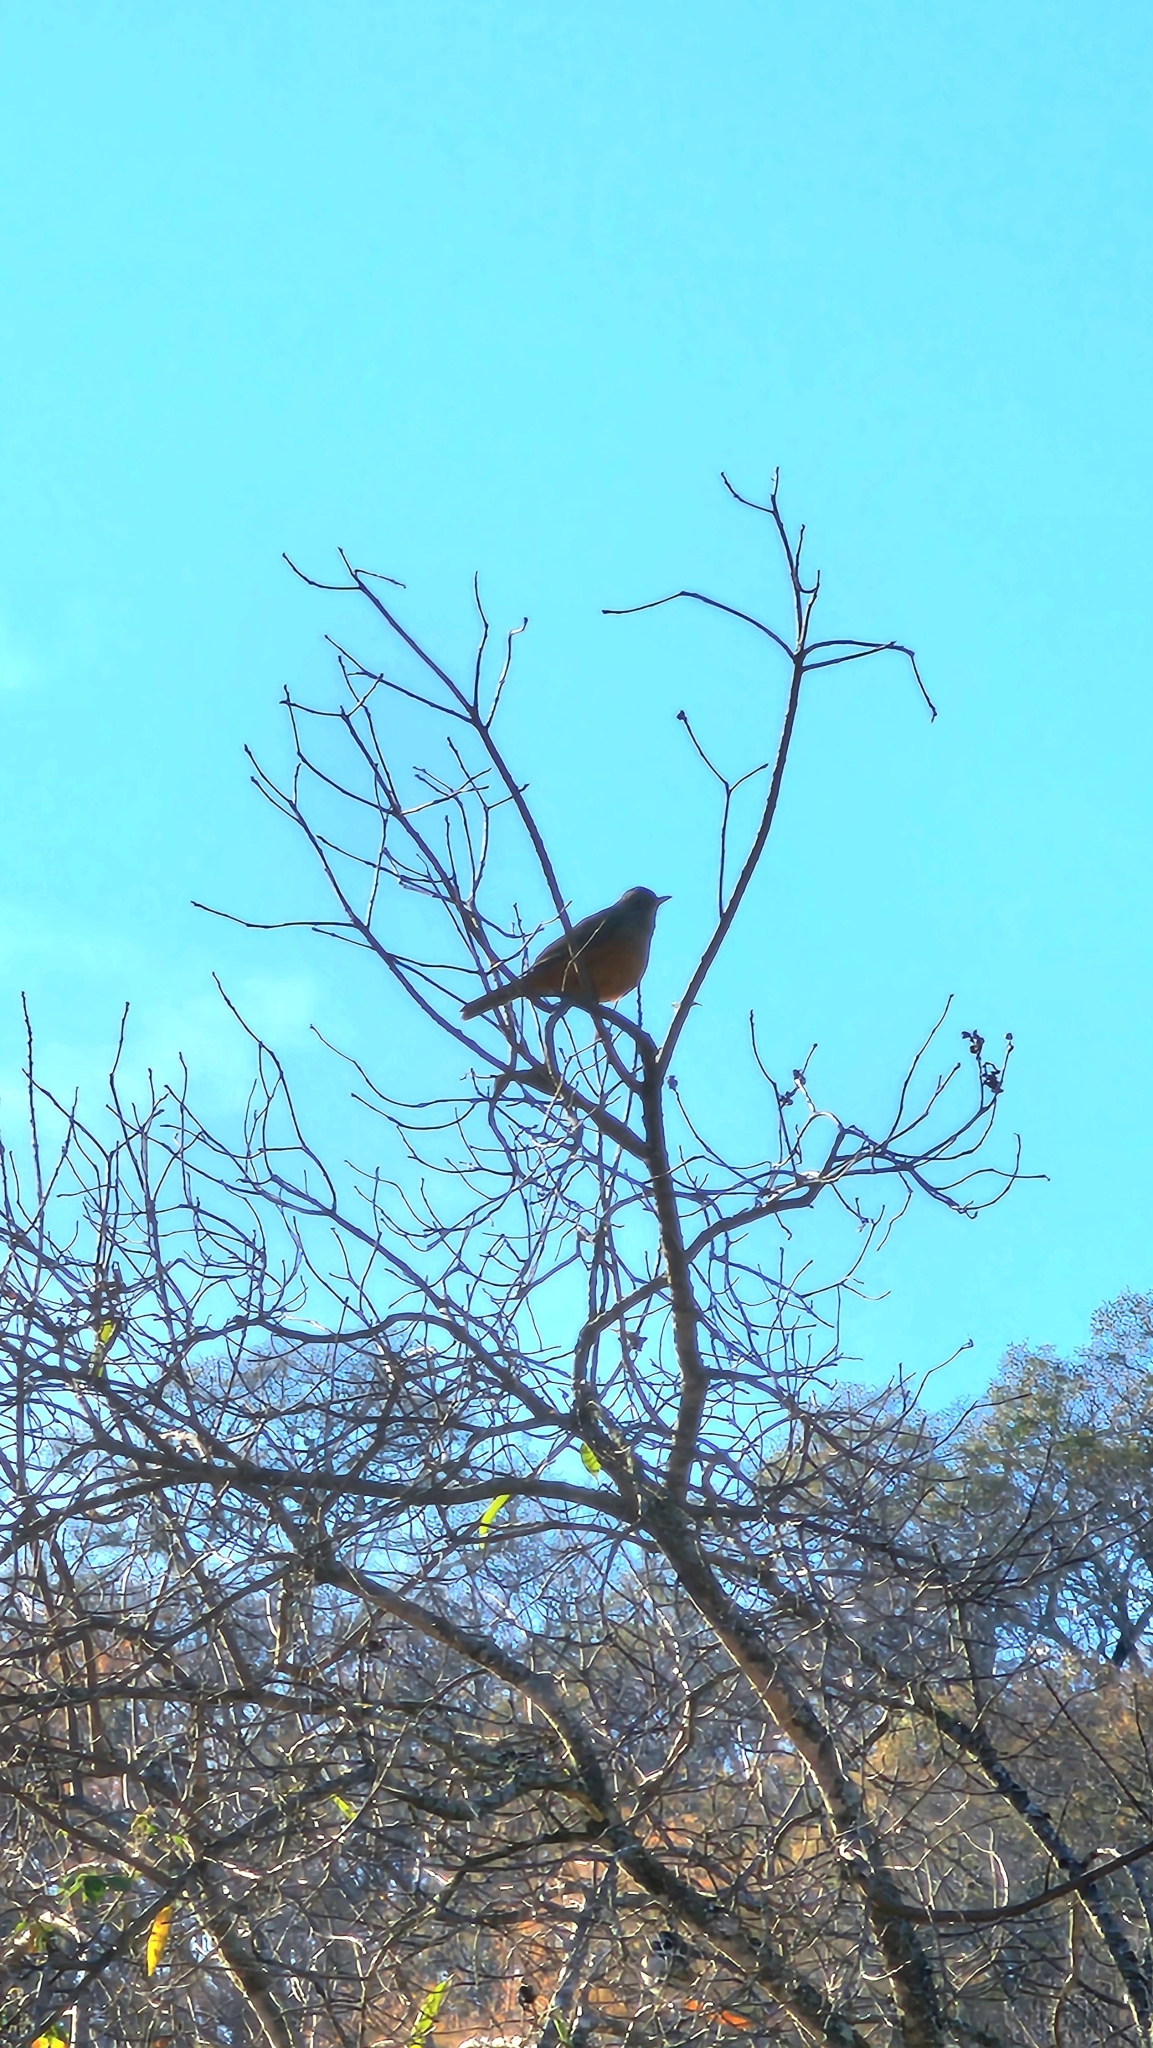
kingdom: Animalia
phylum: Chordata
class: Aves
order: Passeriformes
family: Turdidae
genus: Turdus
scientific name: Turdus rufiventris
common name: Rufous-bellied thrush
